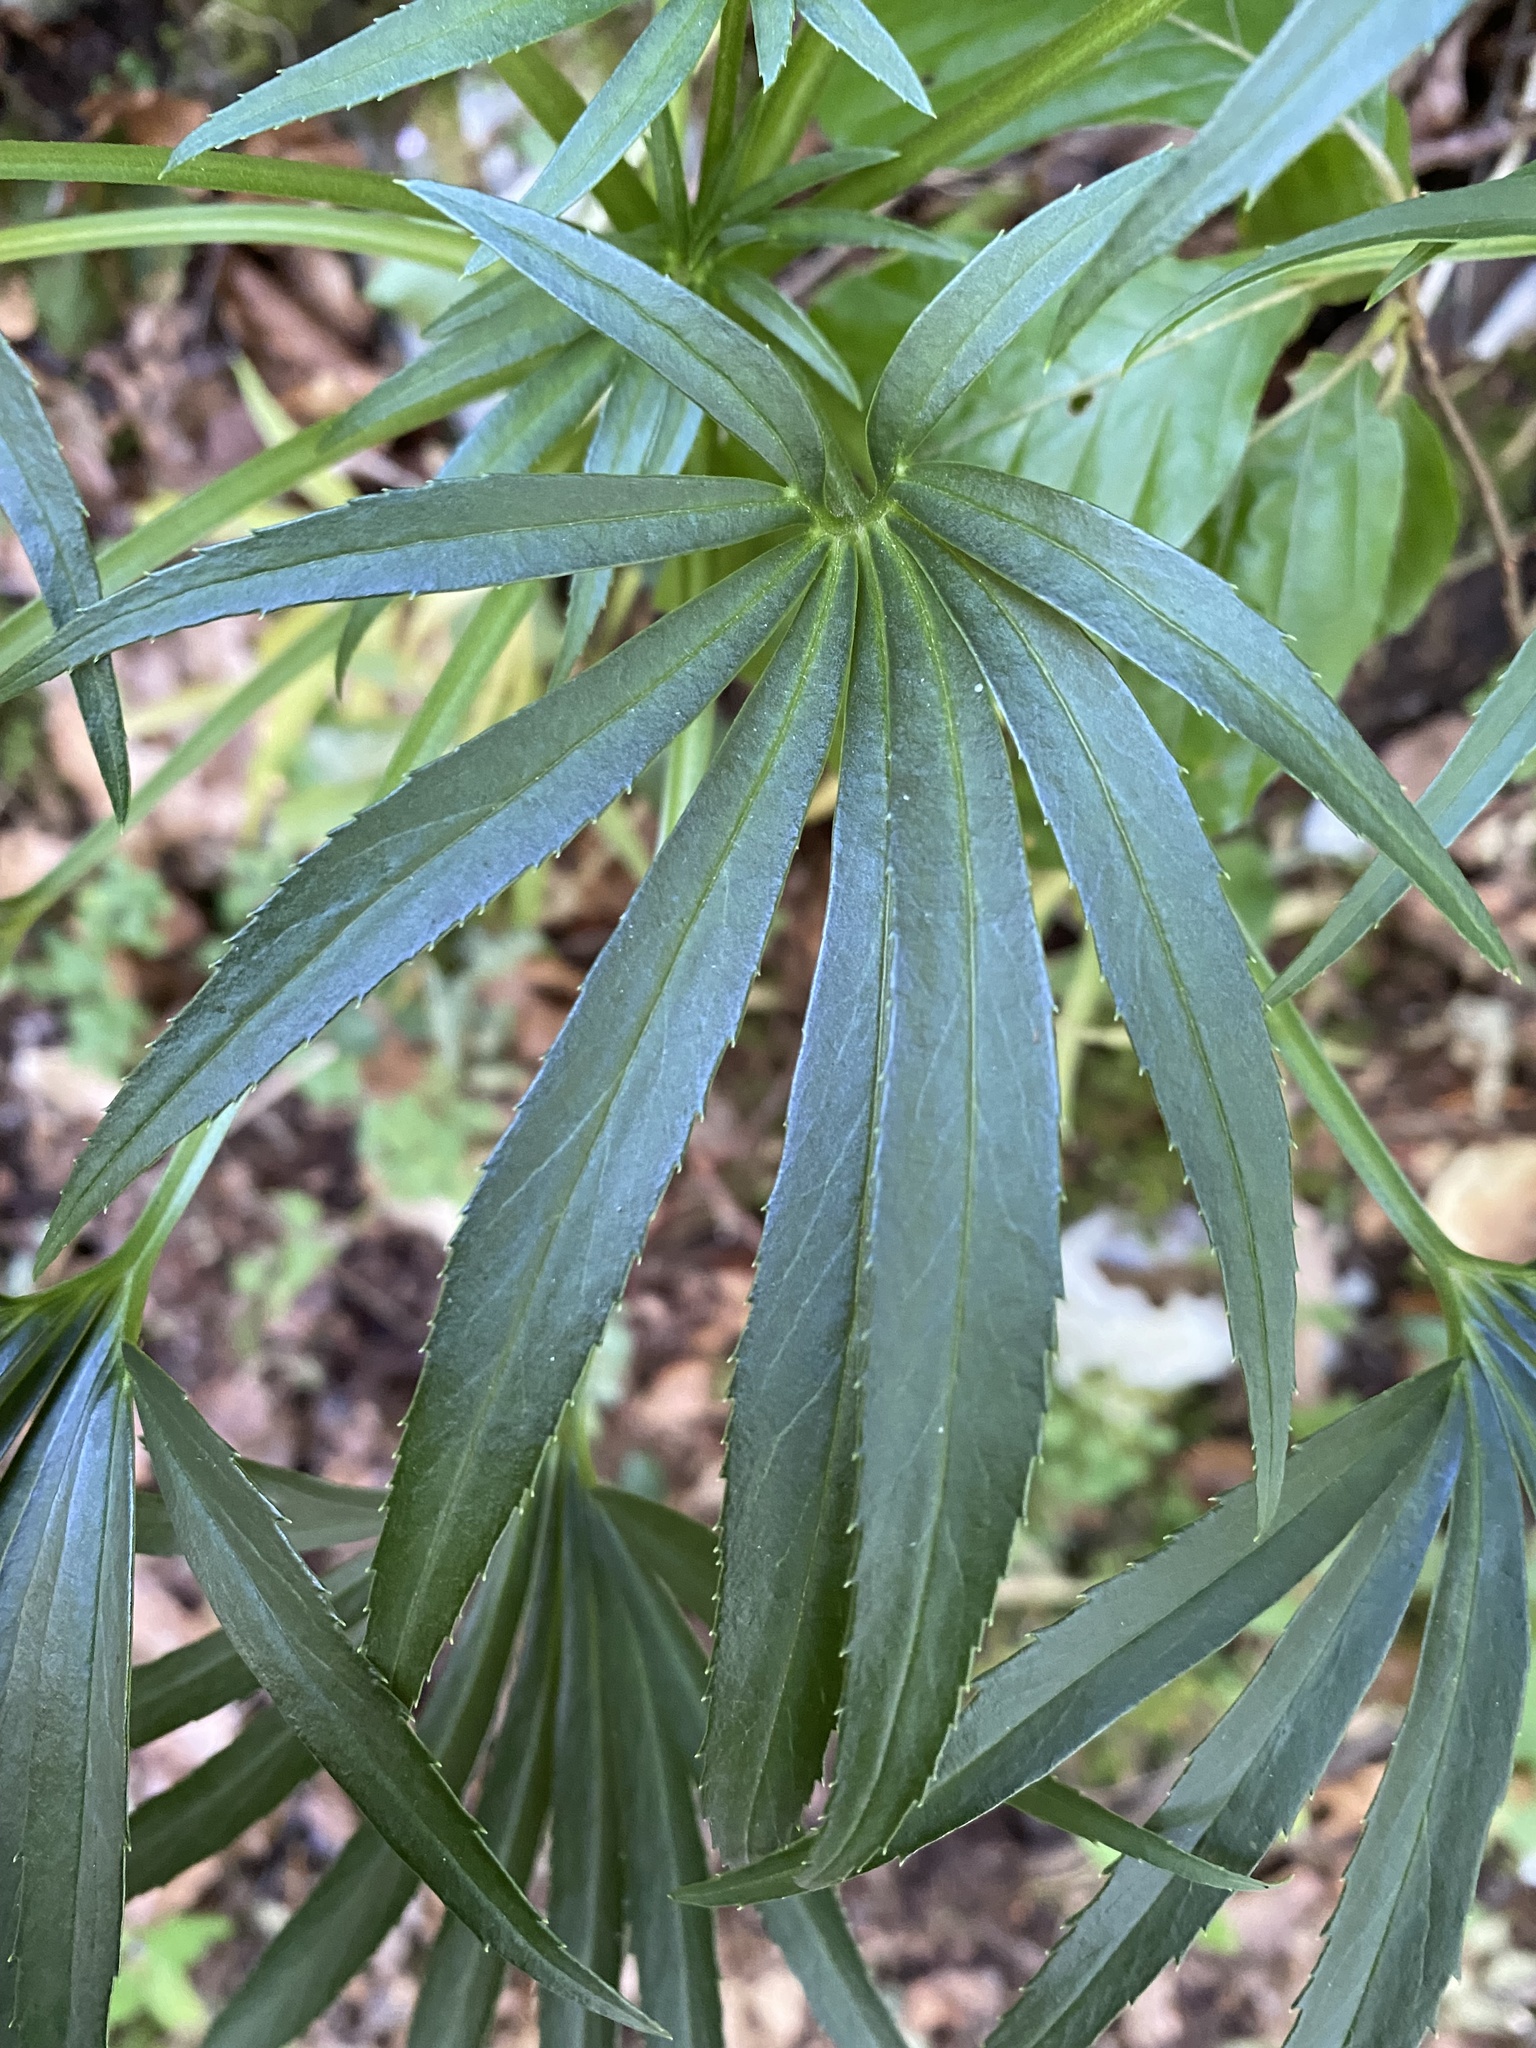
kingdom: Plantae
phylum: Tracheophyta
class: Magnoliopsida
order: Ranunculales
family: Ranunculaceae
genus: Helleborus
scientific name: Helleborus foetidus
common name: Stinking hellebore
